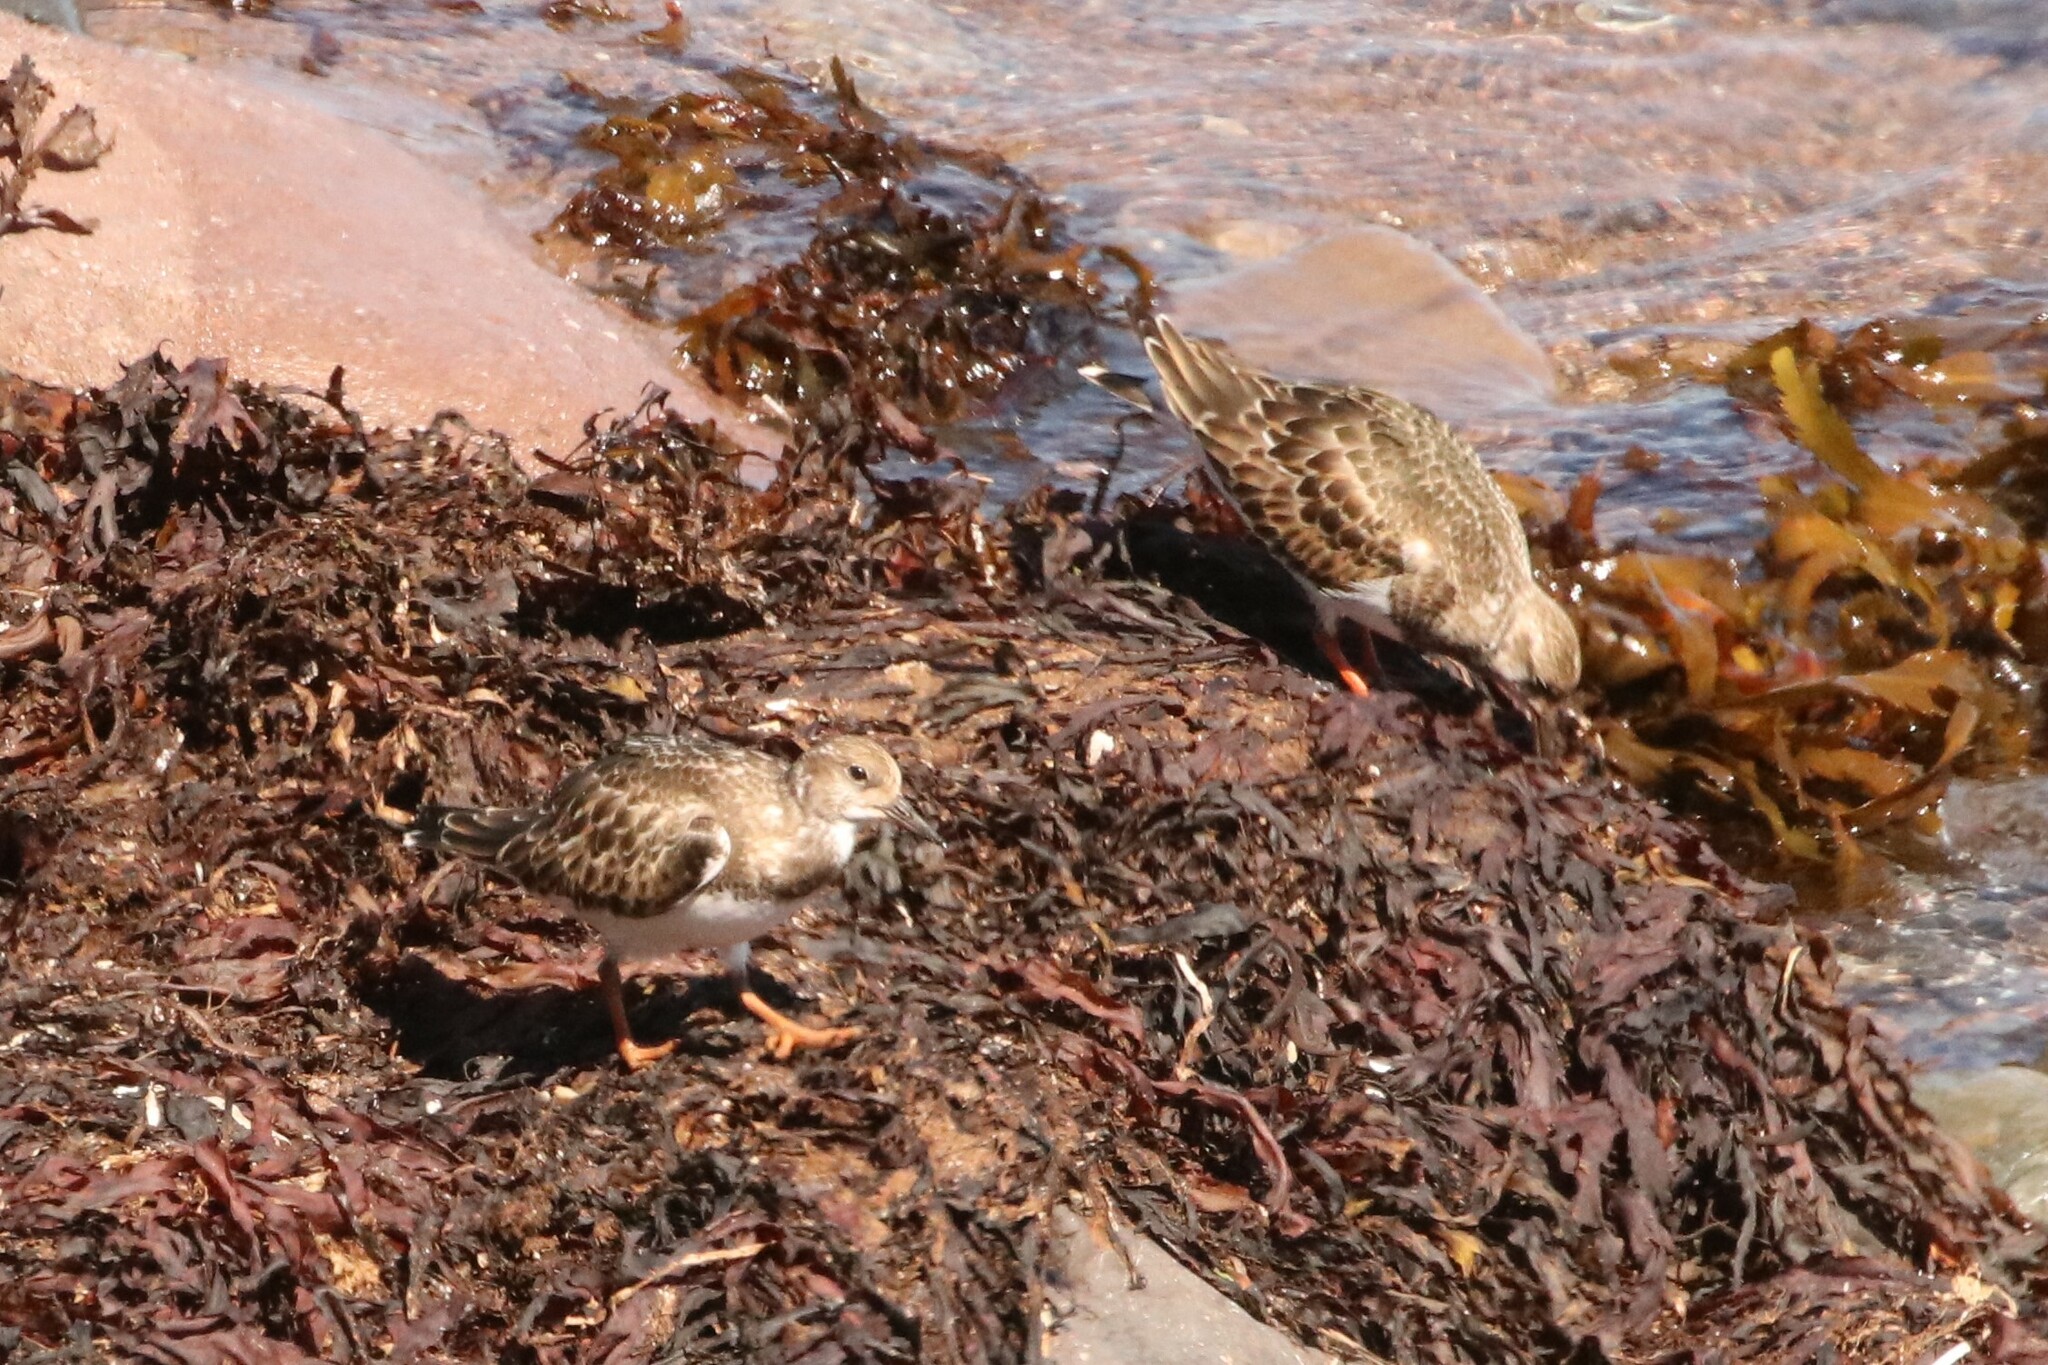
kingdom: Animalia
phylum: Chordata
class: Aves
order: Charadriiformes
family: Scolopacidae
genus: Arenaria
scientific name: Arenaria interpres
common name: Ruddy turnstone
